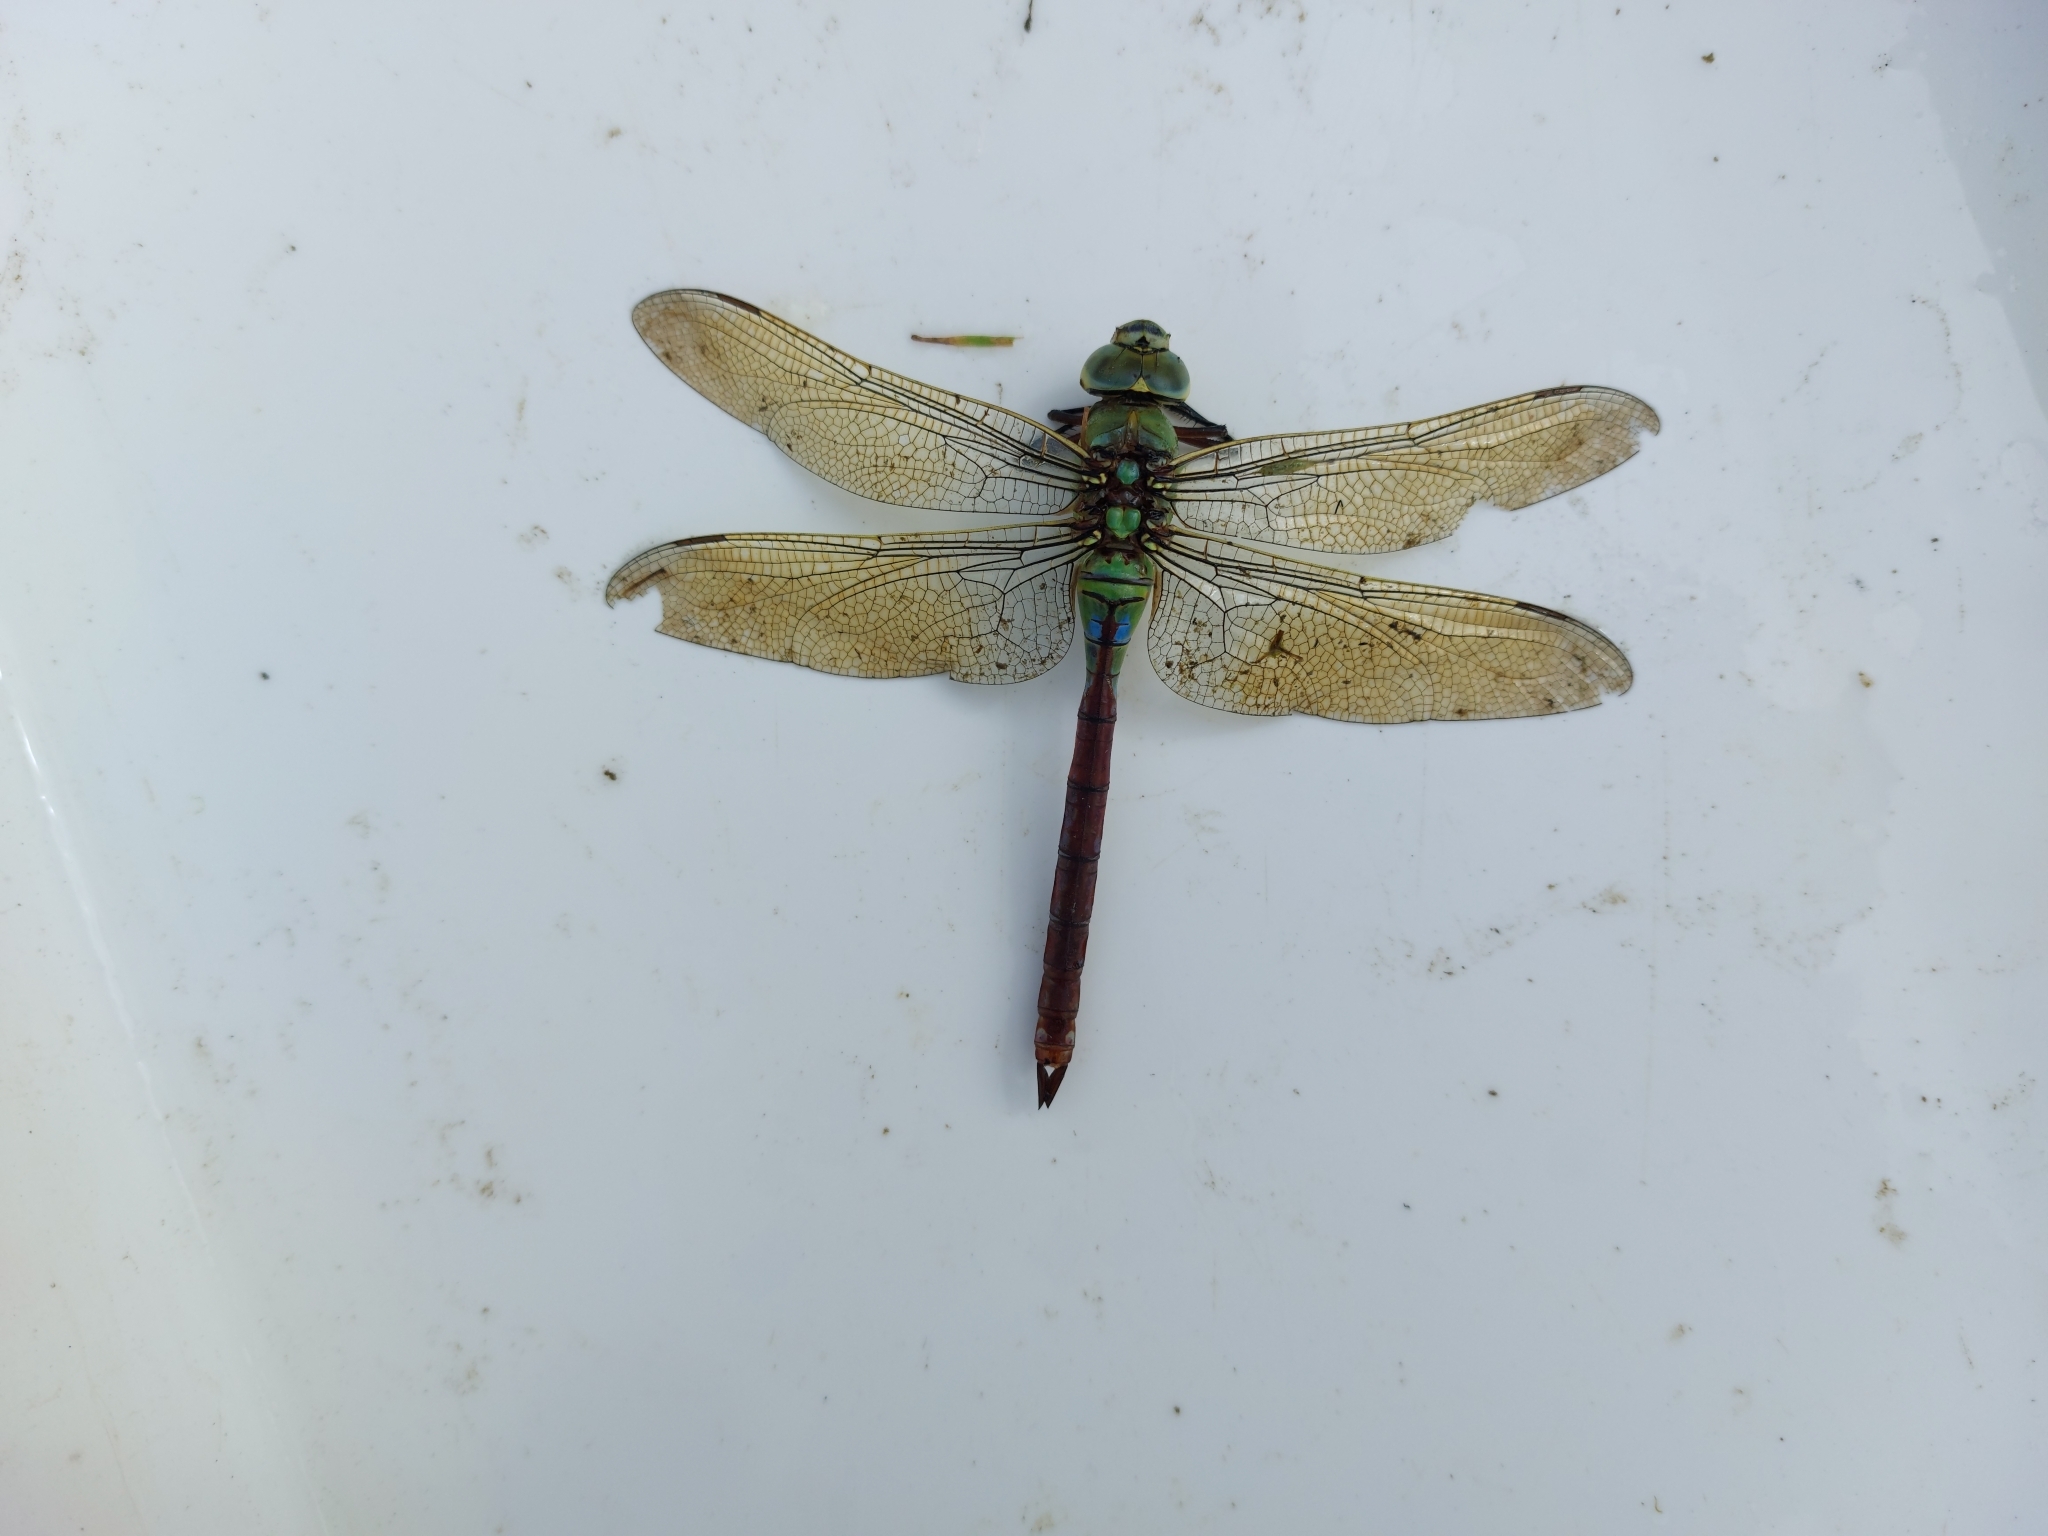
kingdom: Animalia
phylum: Arthropoda
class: Insecta
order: Odonata
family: Aeshnidae
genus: Anax
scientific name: Anax parthenope
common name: Lesser emperor
